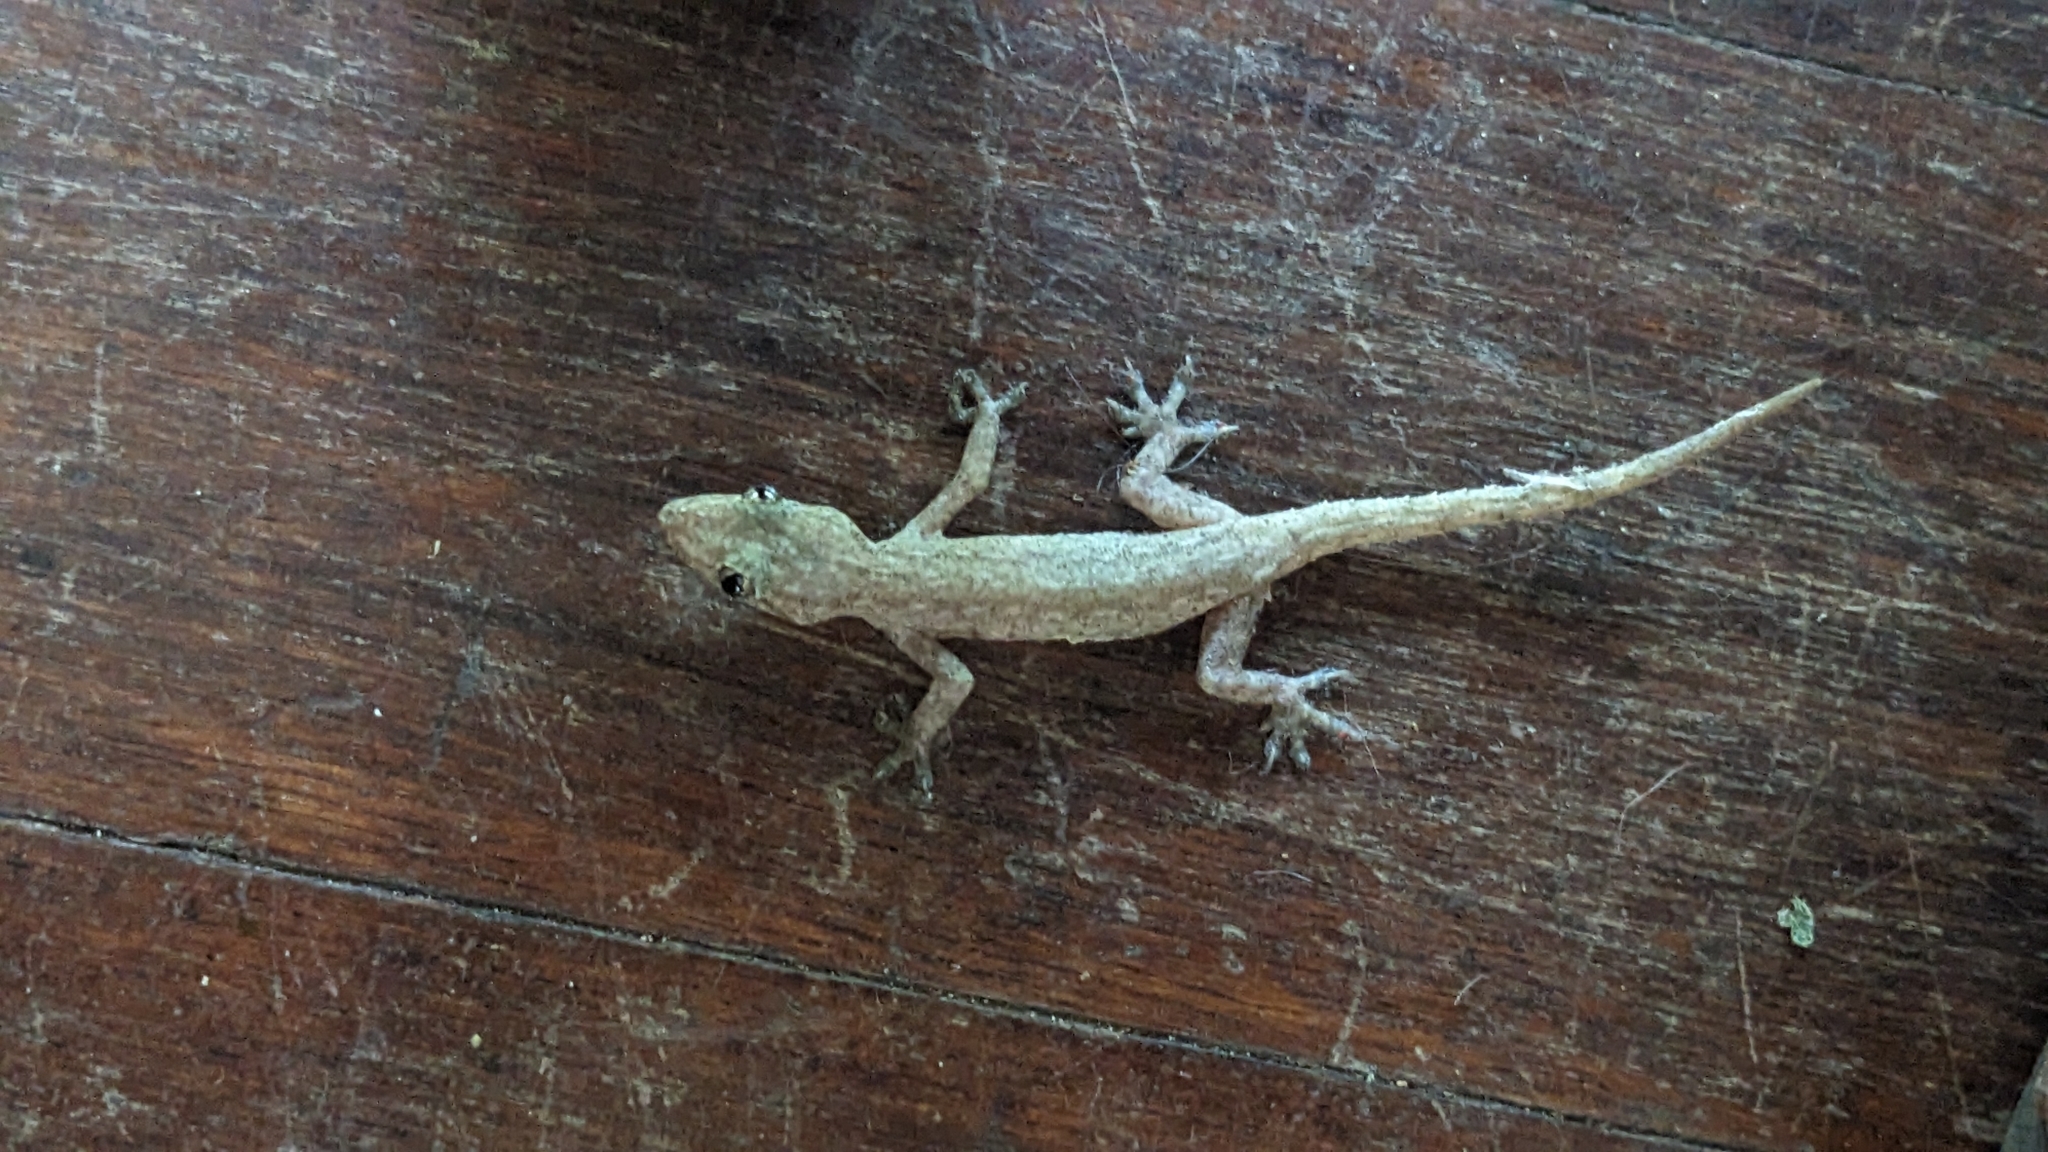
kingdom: Animalia
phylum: Chordata
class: Squamata
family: Gekkonidae
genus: Hemidactylus
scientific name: Hemidactylus frenatus
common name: Common house gecko
